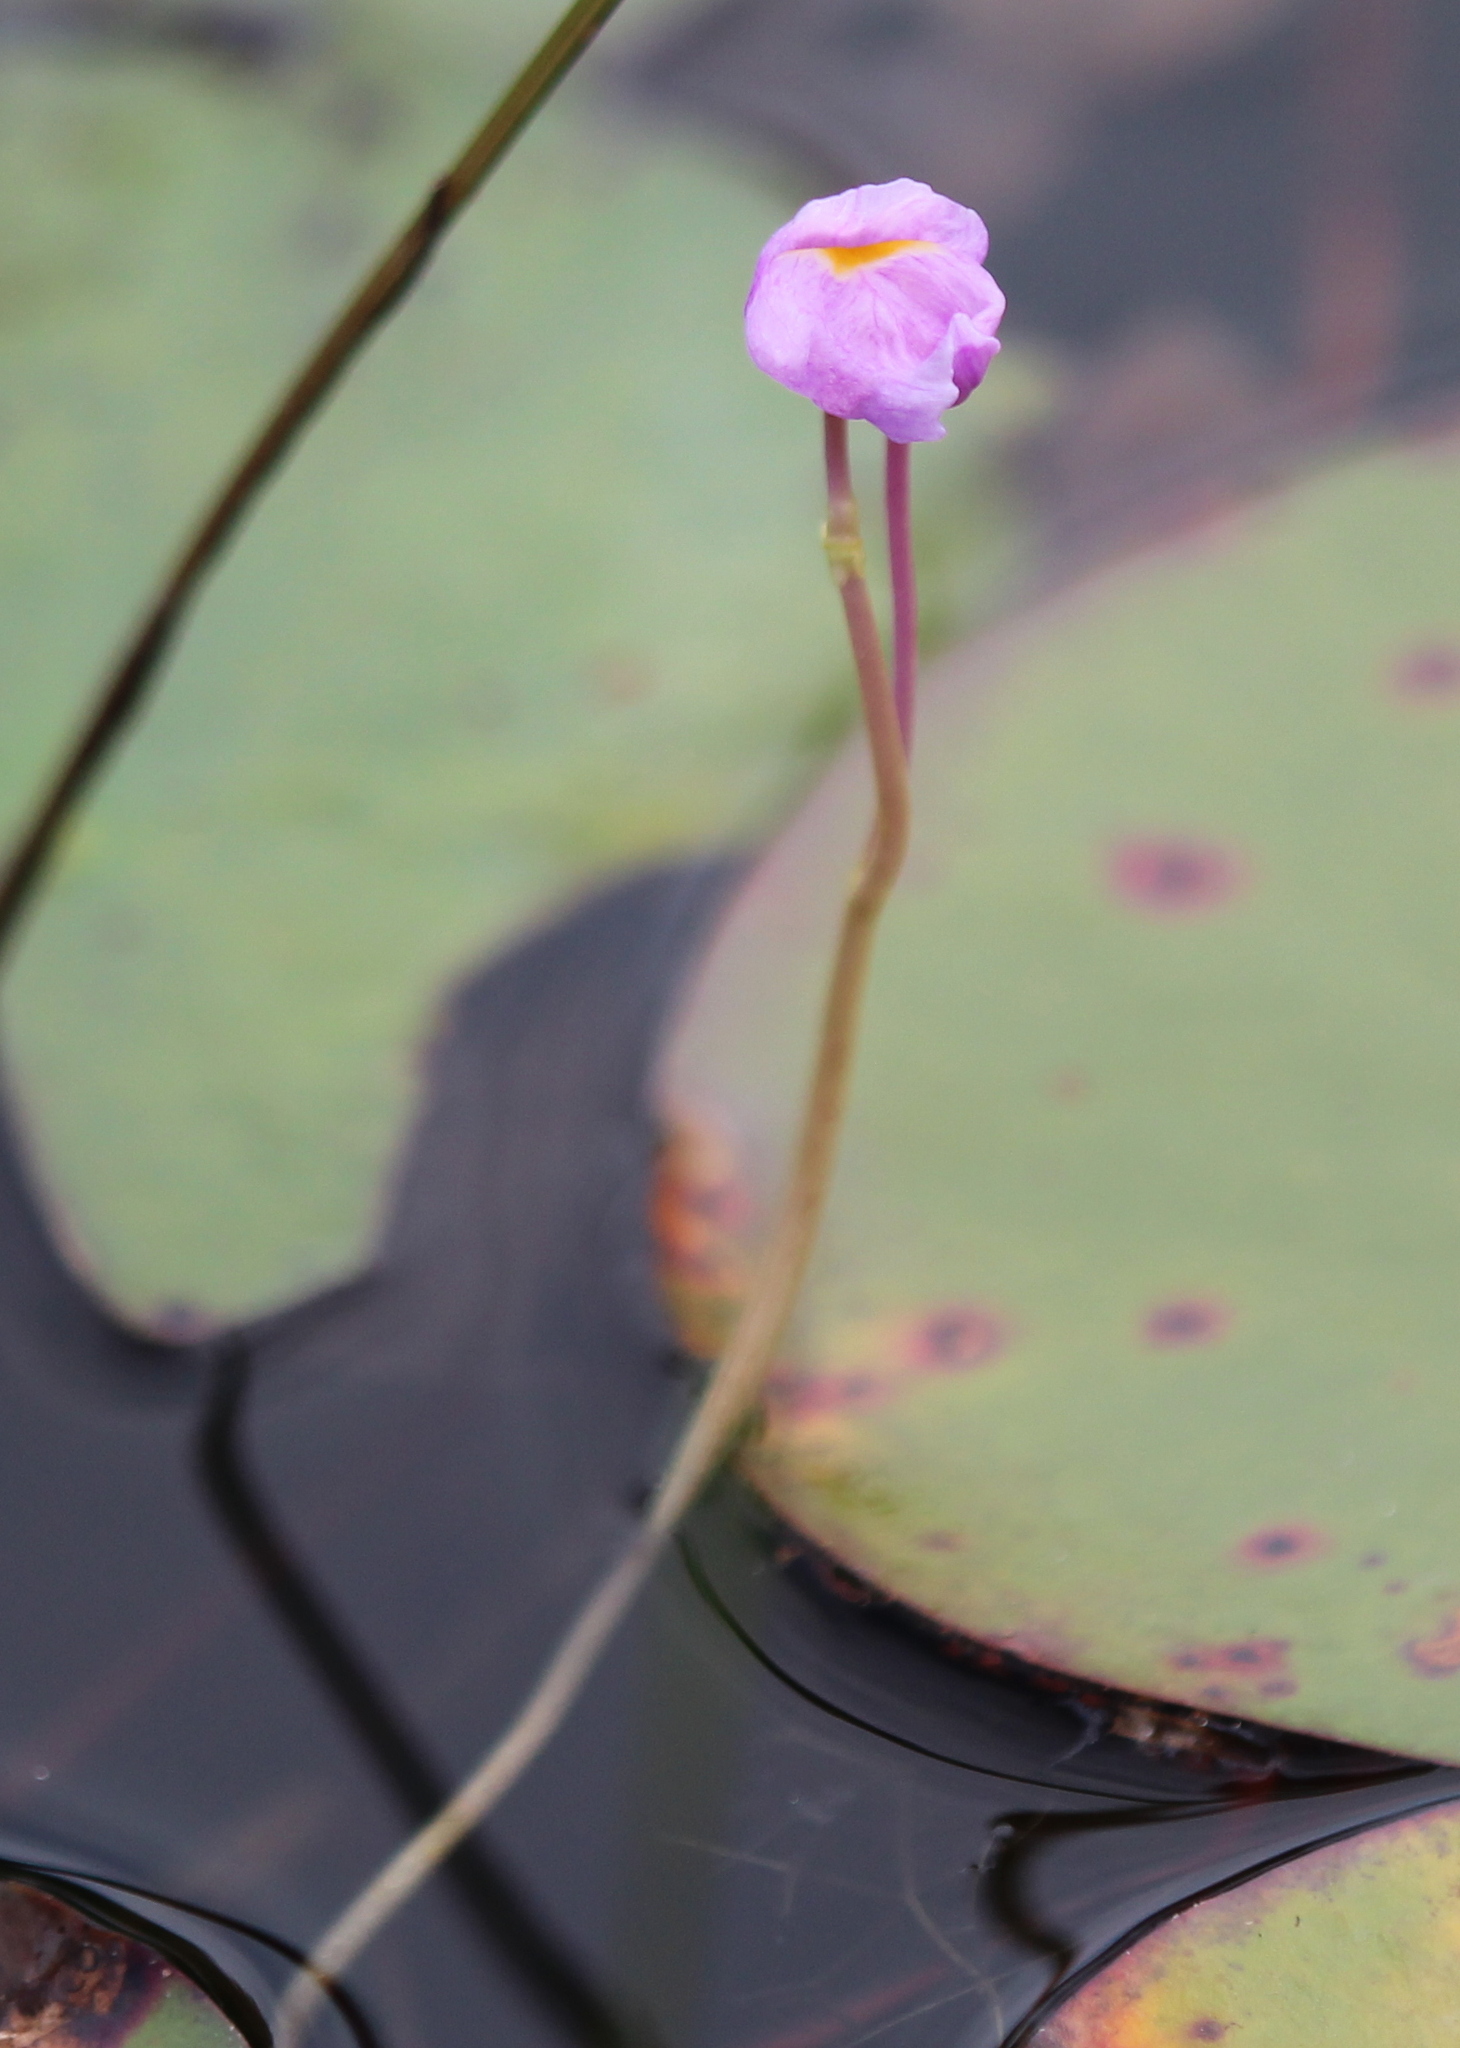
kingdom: Plantae
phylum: Tracheophyta
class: Magnoliopsida
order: Lamiales
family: Lentibulariaceae
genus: Utricularia
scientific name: Utricularia purpurea
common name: Eastern purple bladderwort
